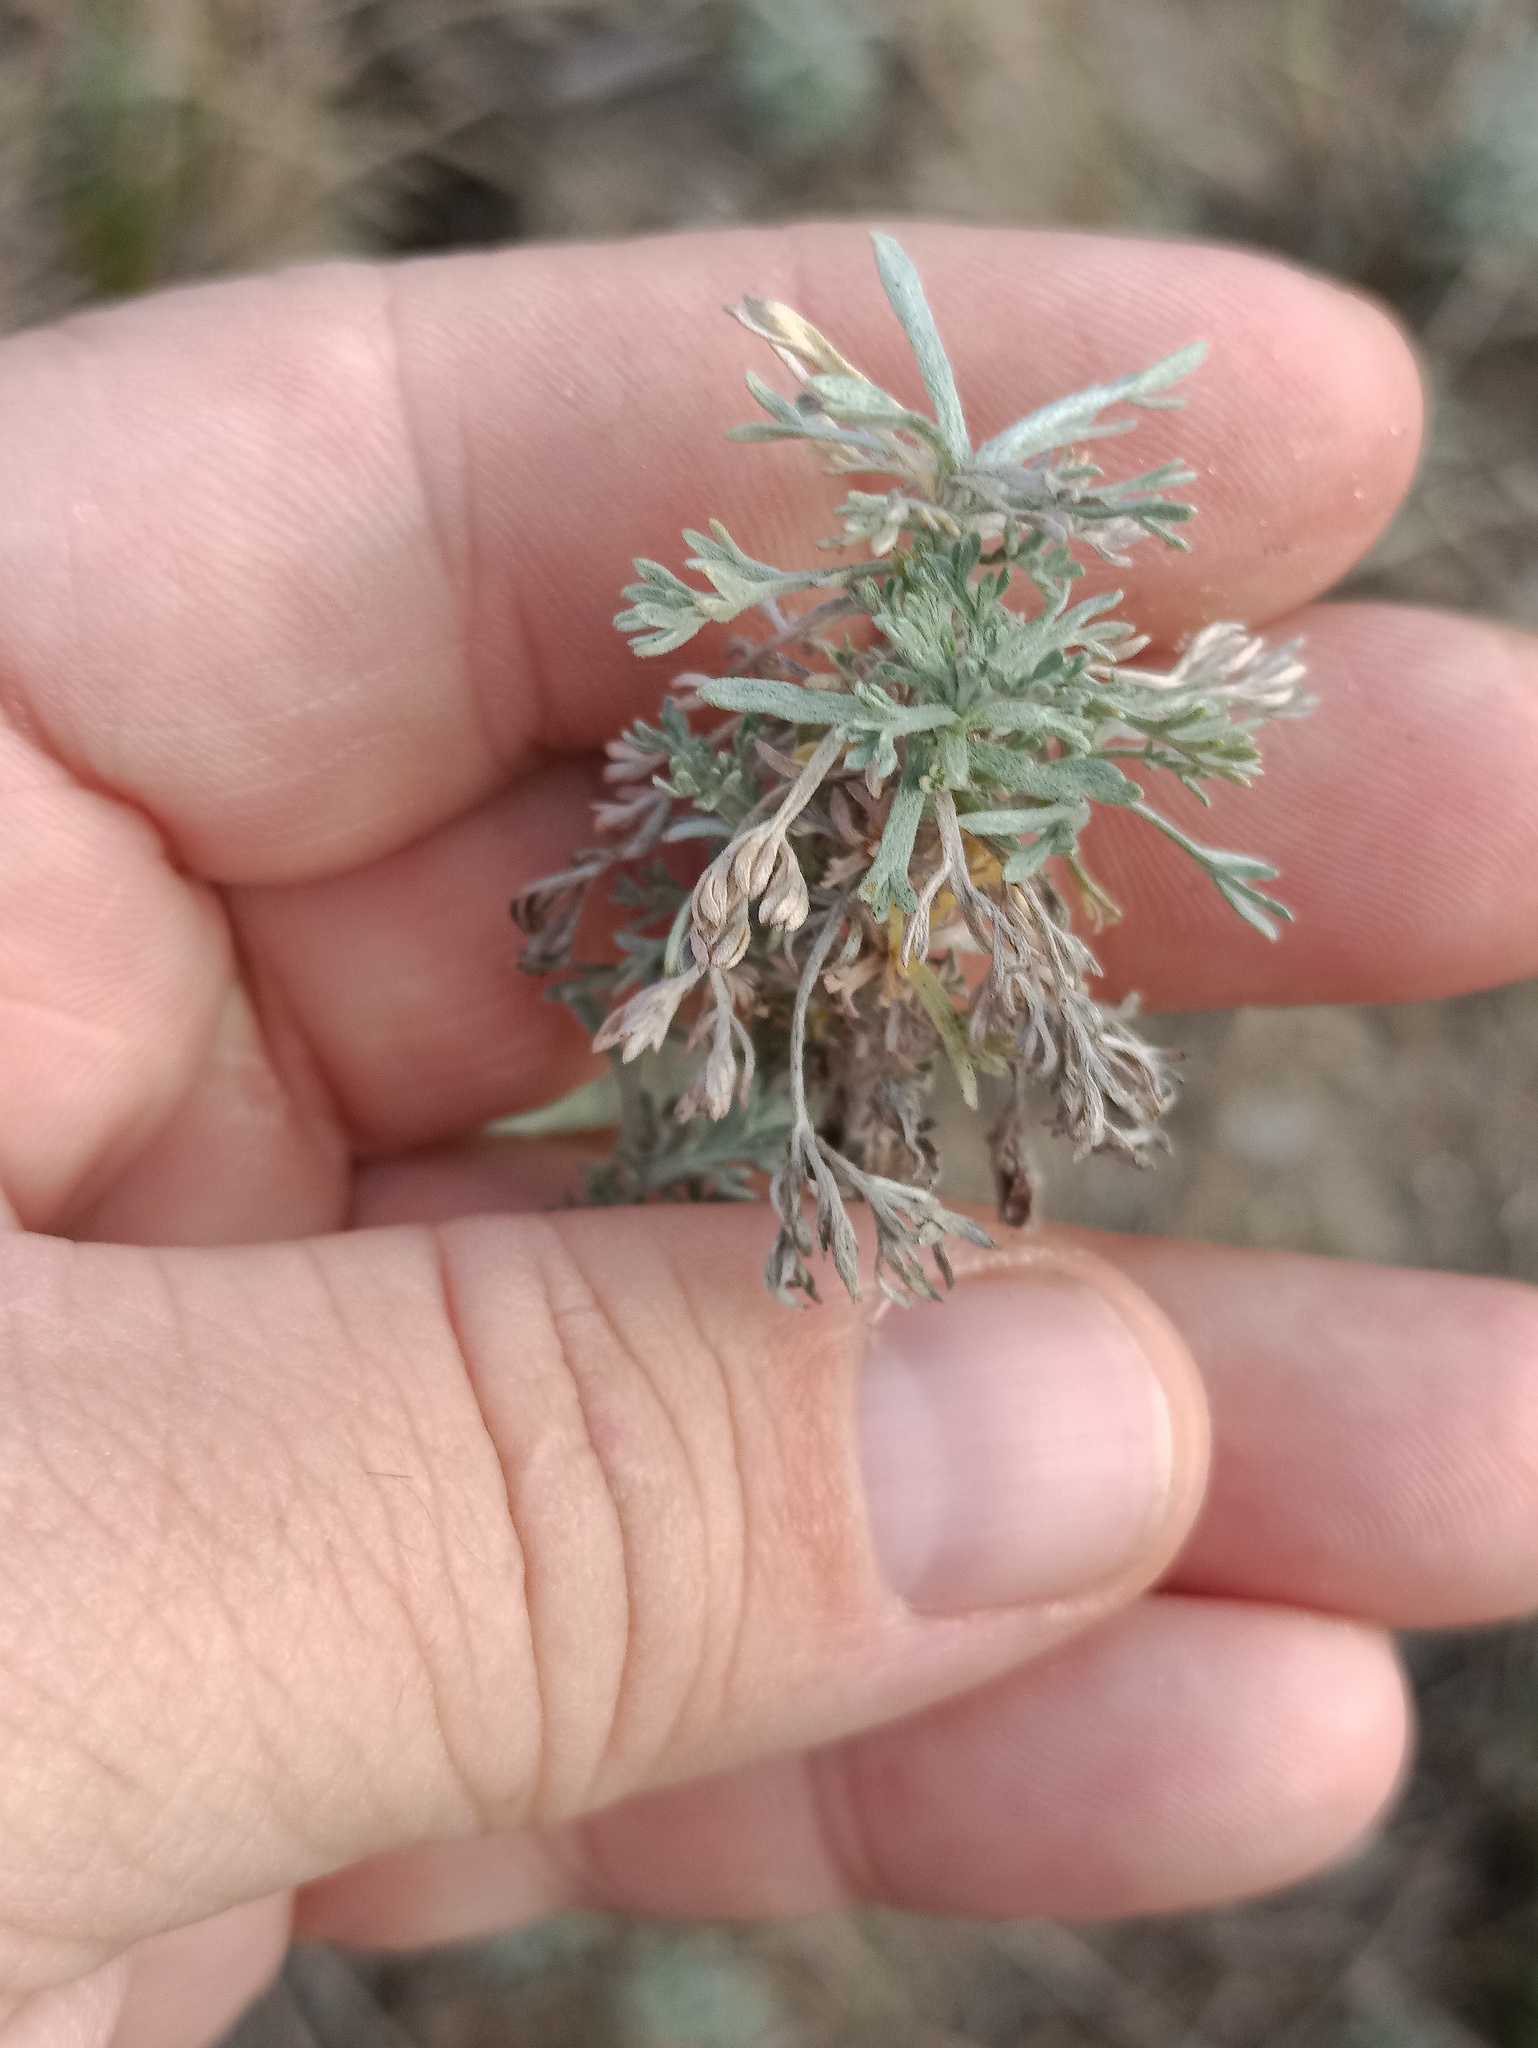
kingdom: Plantae
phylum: Tracheophyta
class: Magnoliopsida
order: Asterales
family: Asteraceae
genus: Artemisia
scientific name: Artemisia austriaca
